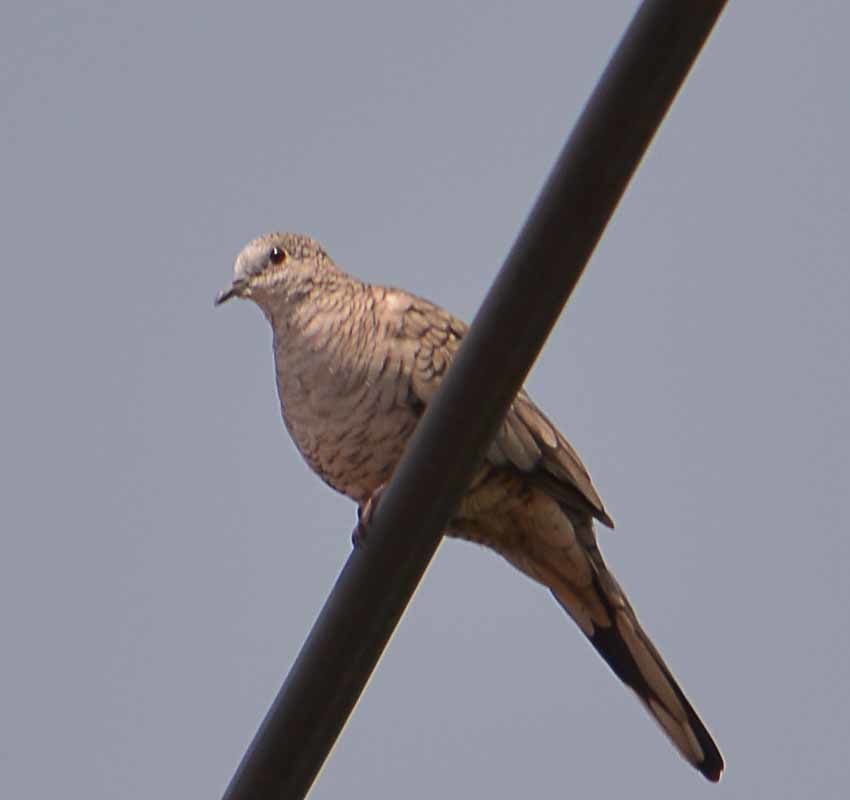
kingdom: Animalia
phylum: Chordata
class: Aves
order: Columbiformes
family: Columbidae
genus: Columbina
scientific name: Columbina inca
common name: Inca dove
